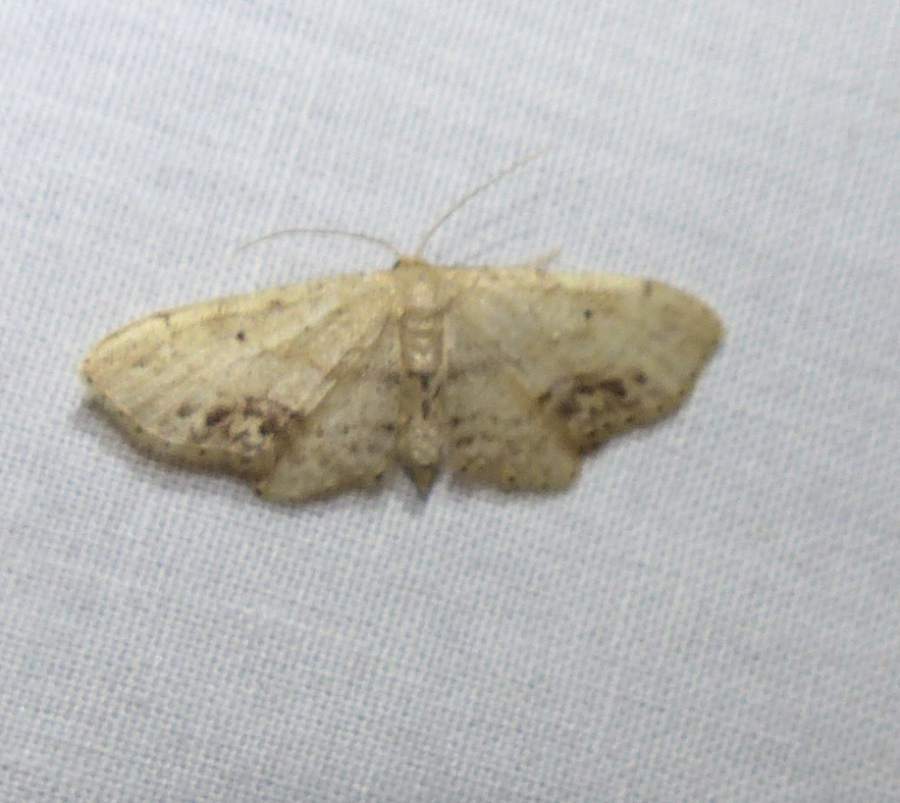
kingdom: Animalia
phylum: Arthropoda
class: Insecta
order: Lepidoptera
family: Geometridae
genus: Idaea
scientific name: Idaea dimidiata
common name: Single-dotted wave
